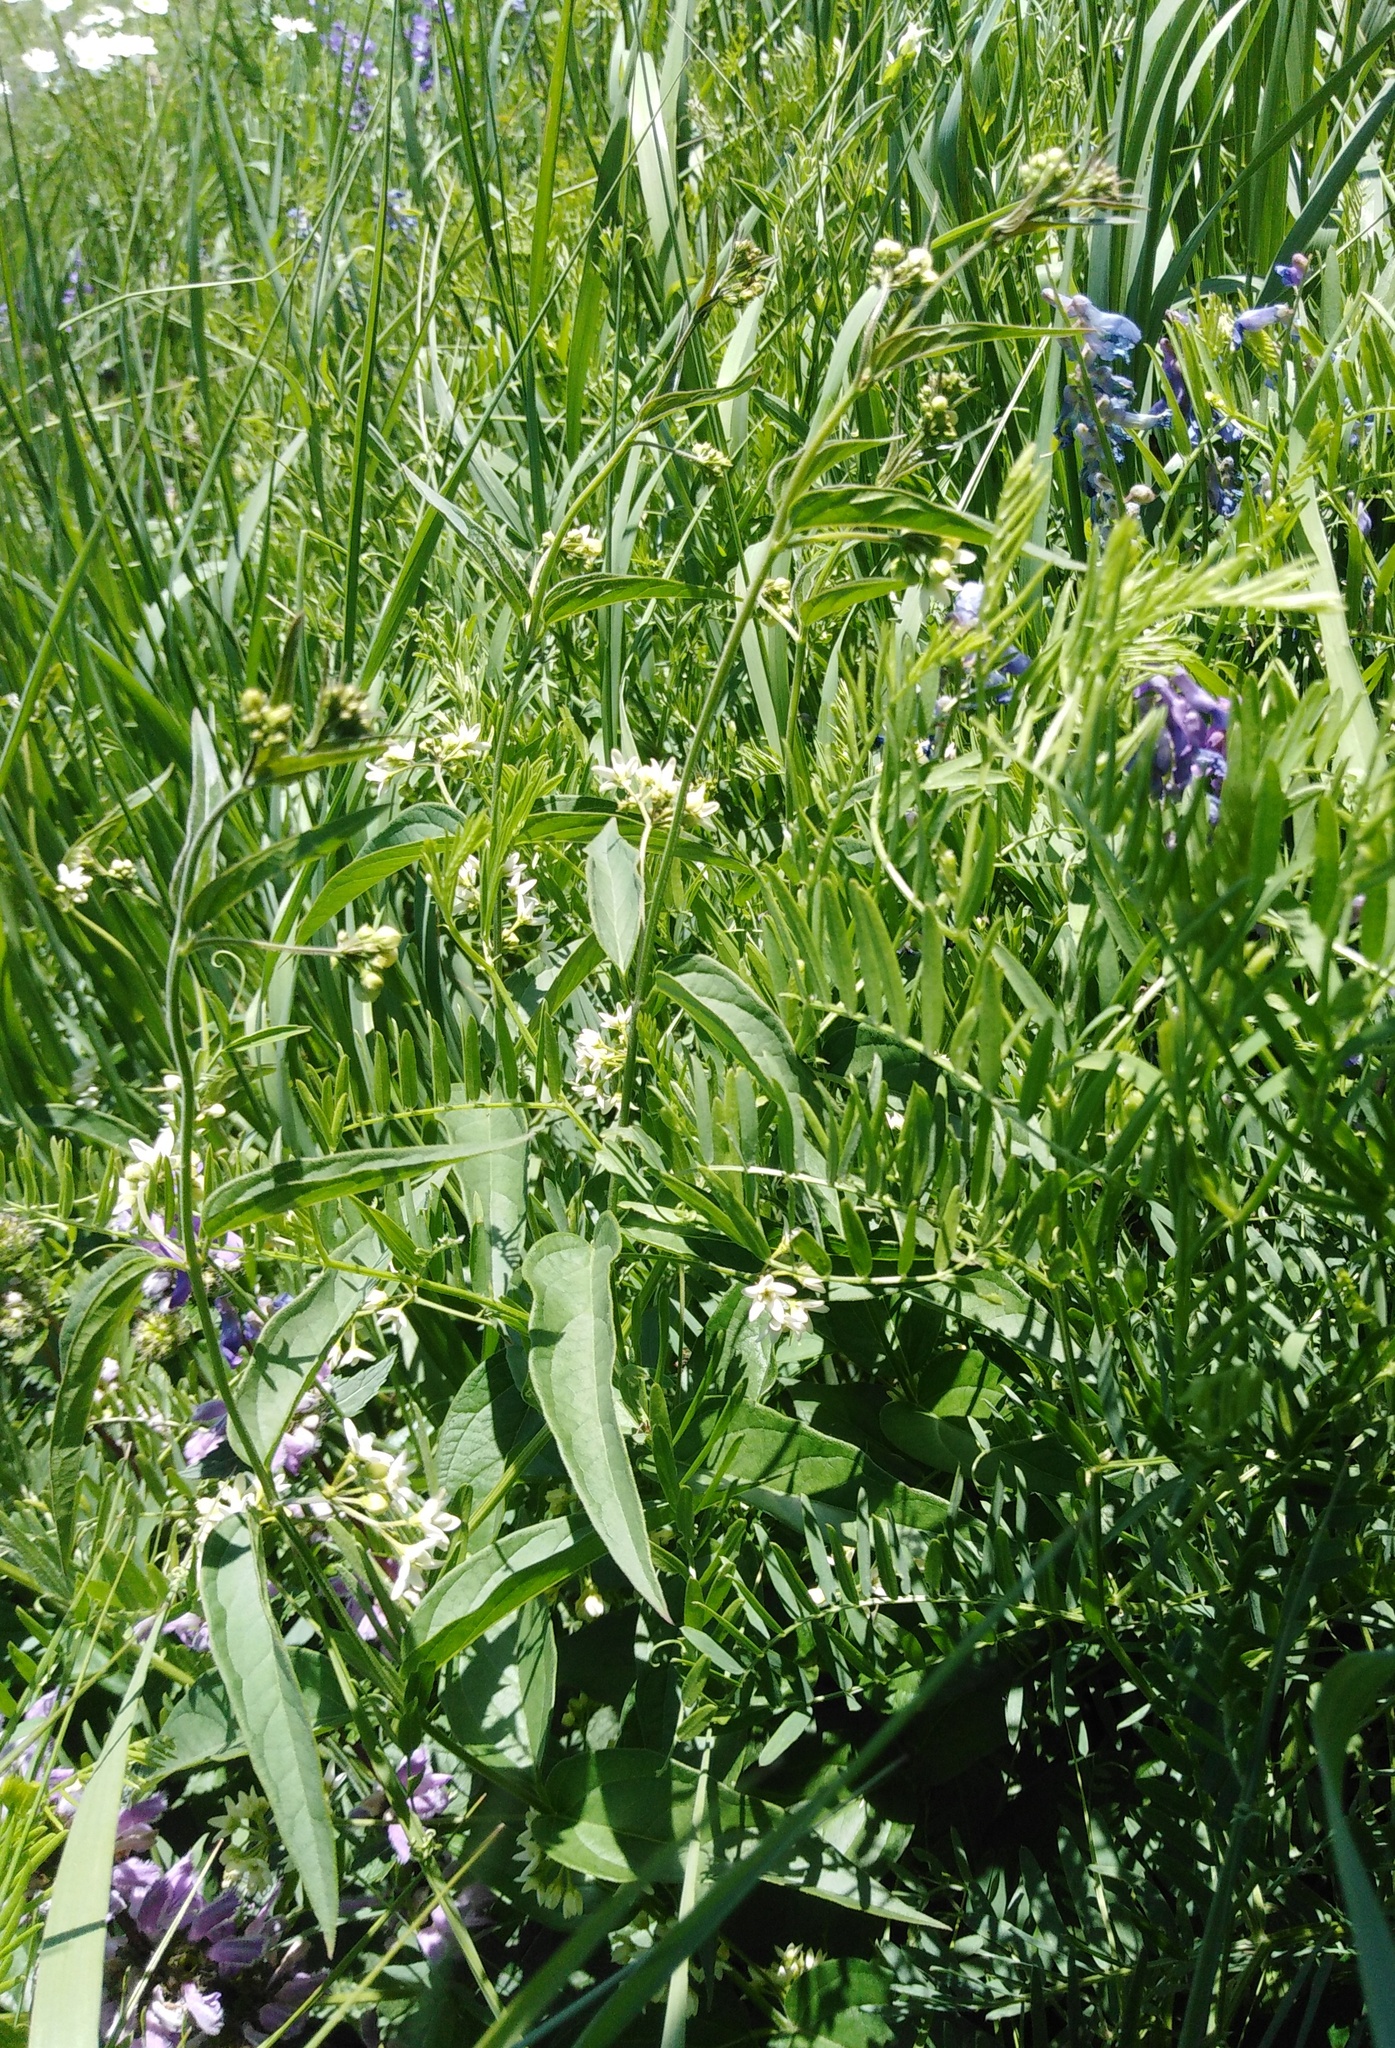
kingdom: Plantae
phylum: Tracheophyta
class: Magnoliopsida
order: Gentianales
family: Apocynaceae
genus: Vincetoxicum
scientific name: Vincetoxicum hirundinaria
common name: White swallowwort
